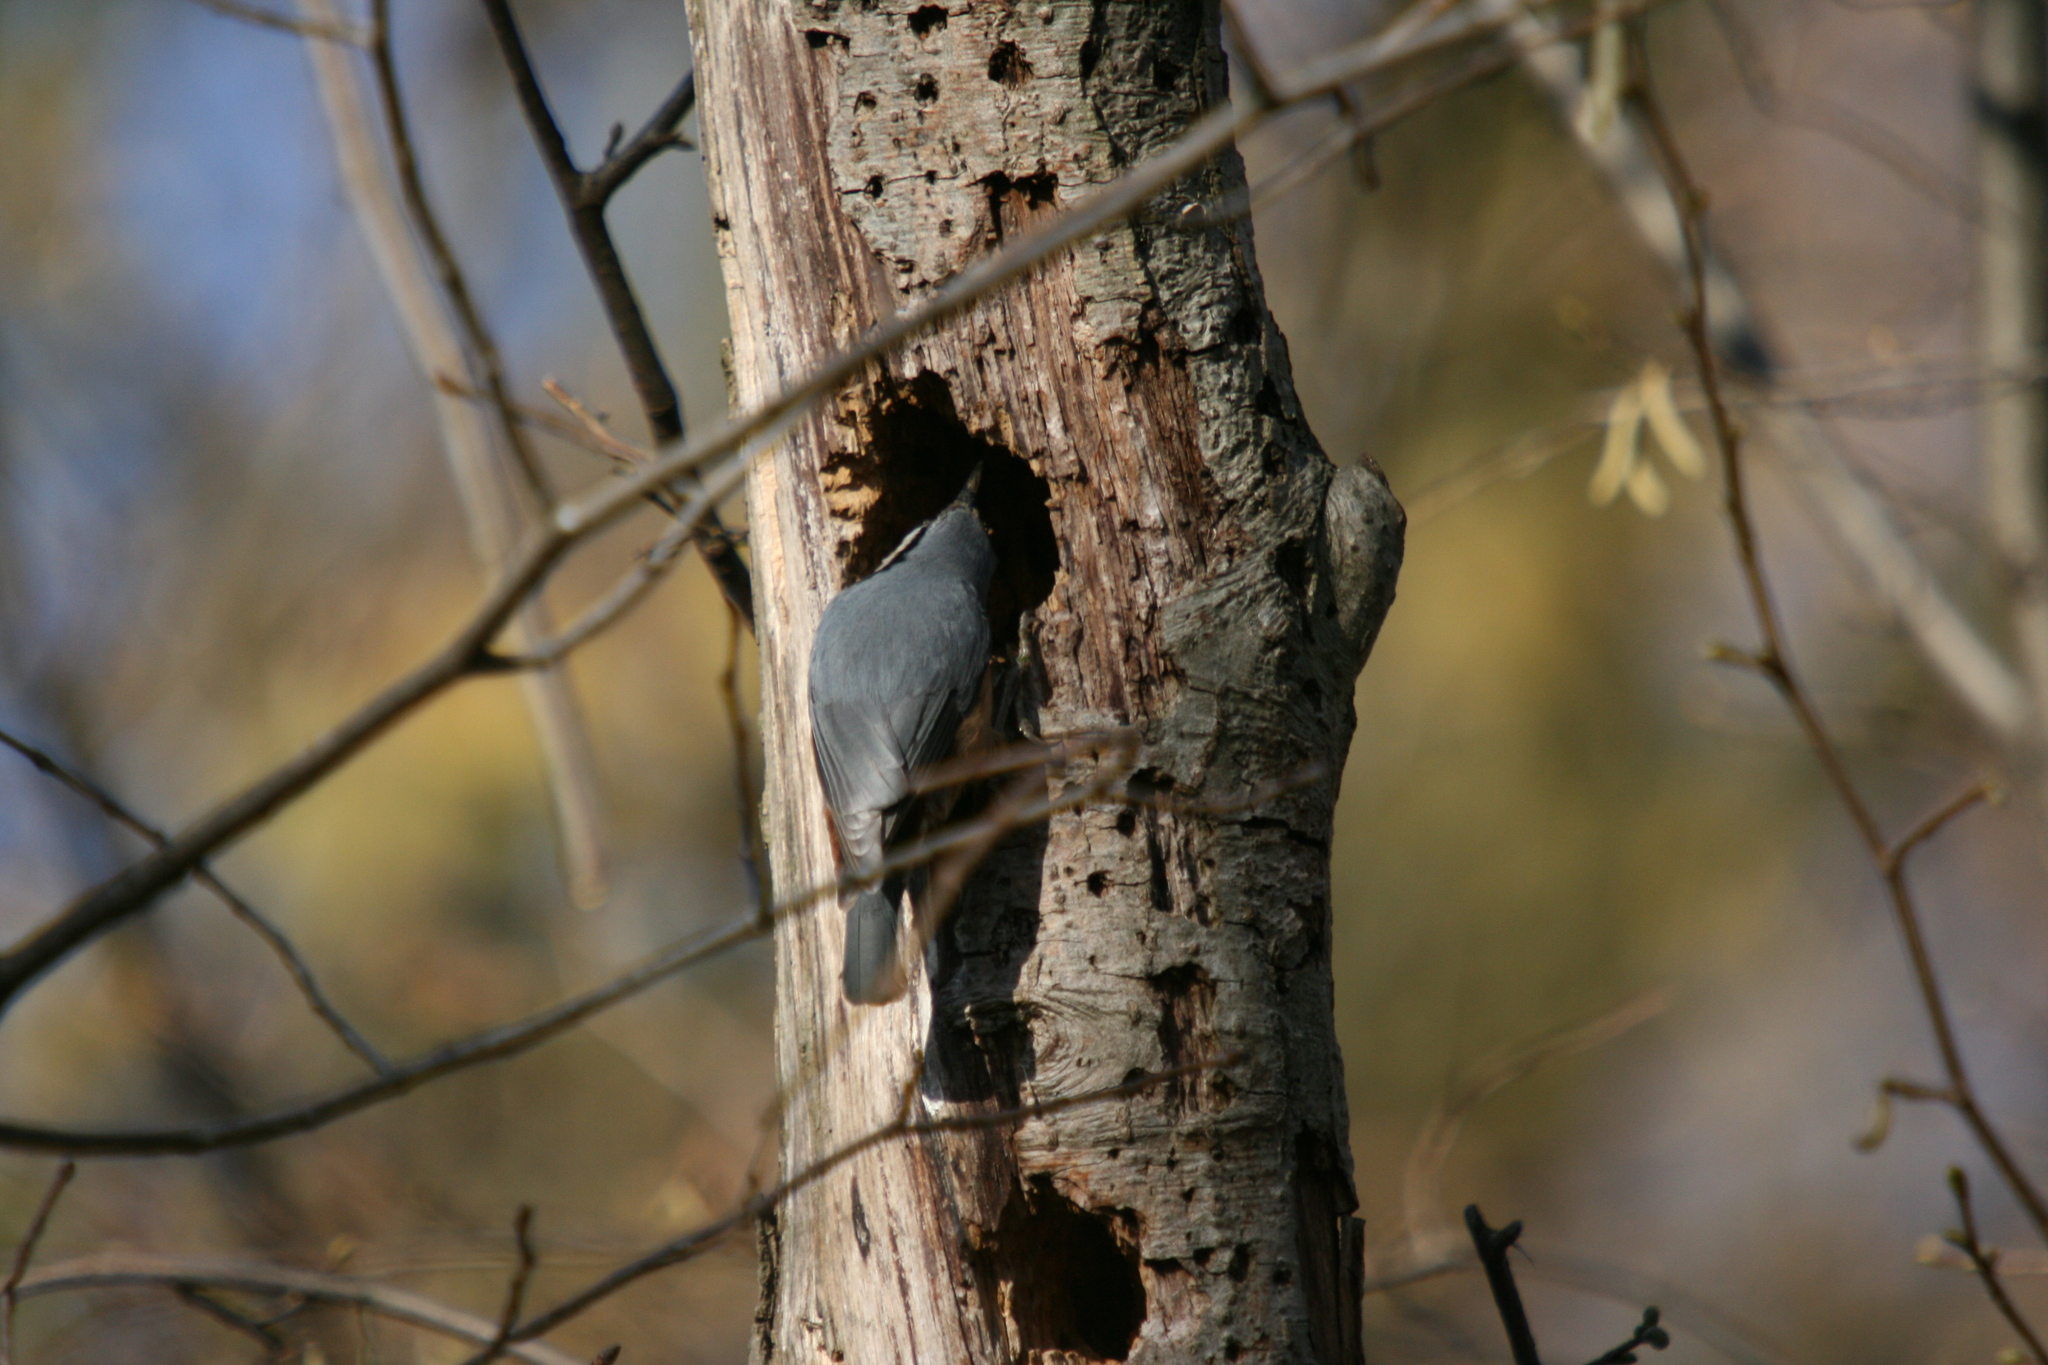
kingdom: Animalia
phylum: Chordata
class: Aves
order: Passeriformes
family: Sittidae
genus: Sitta
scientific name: Sitta europaea
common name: Eurasian nuthatch
